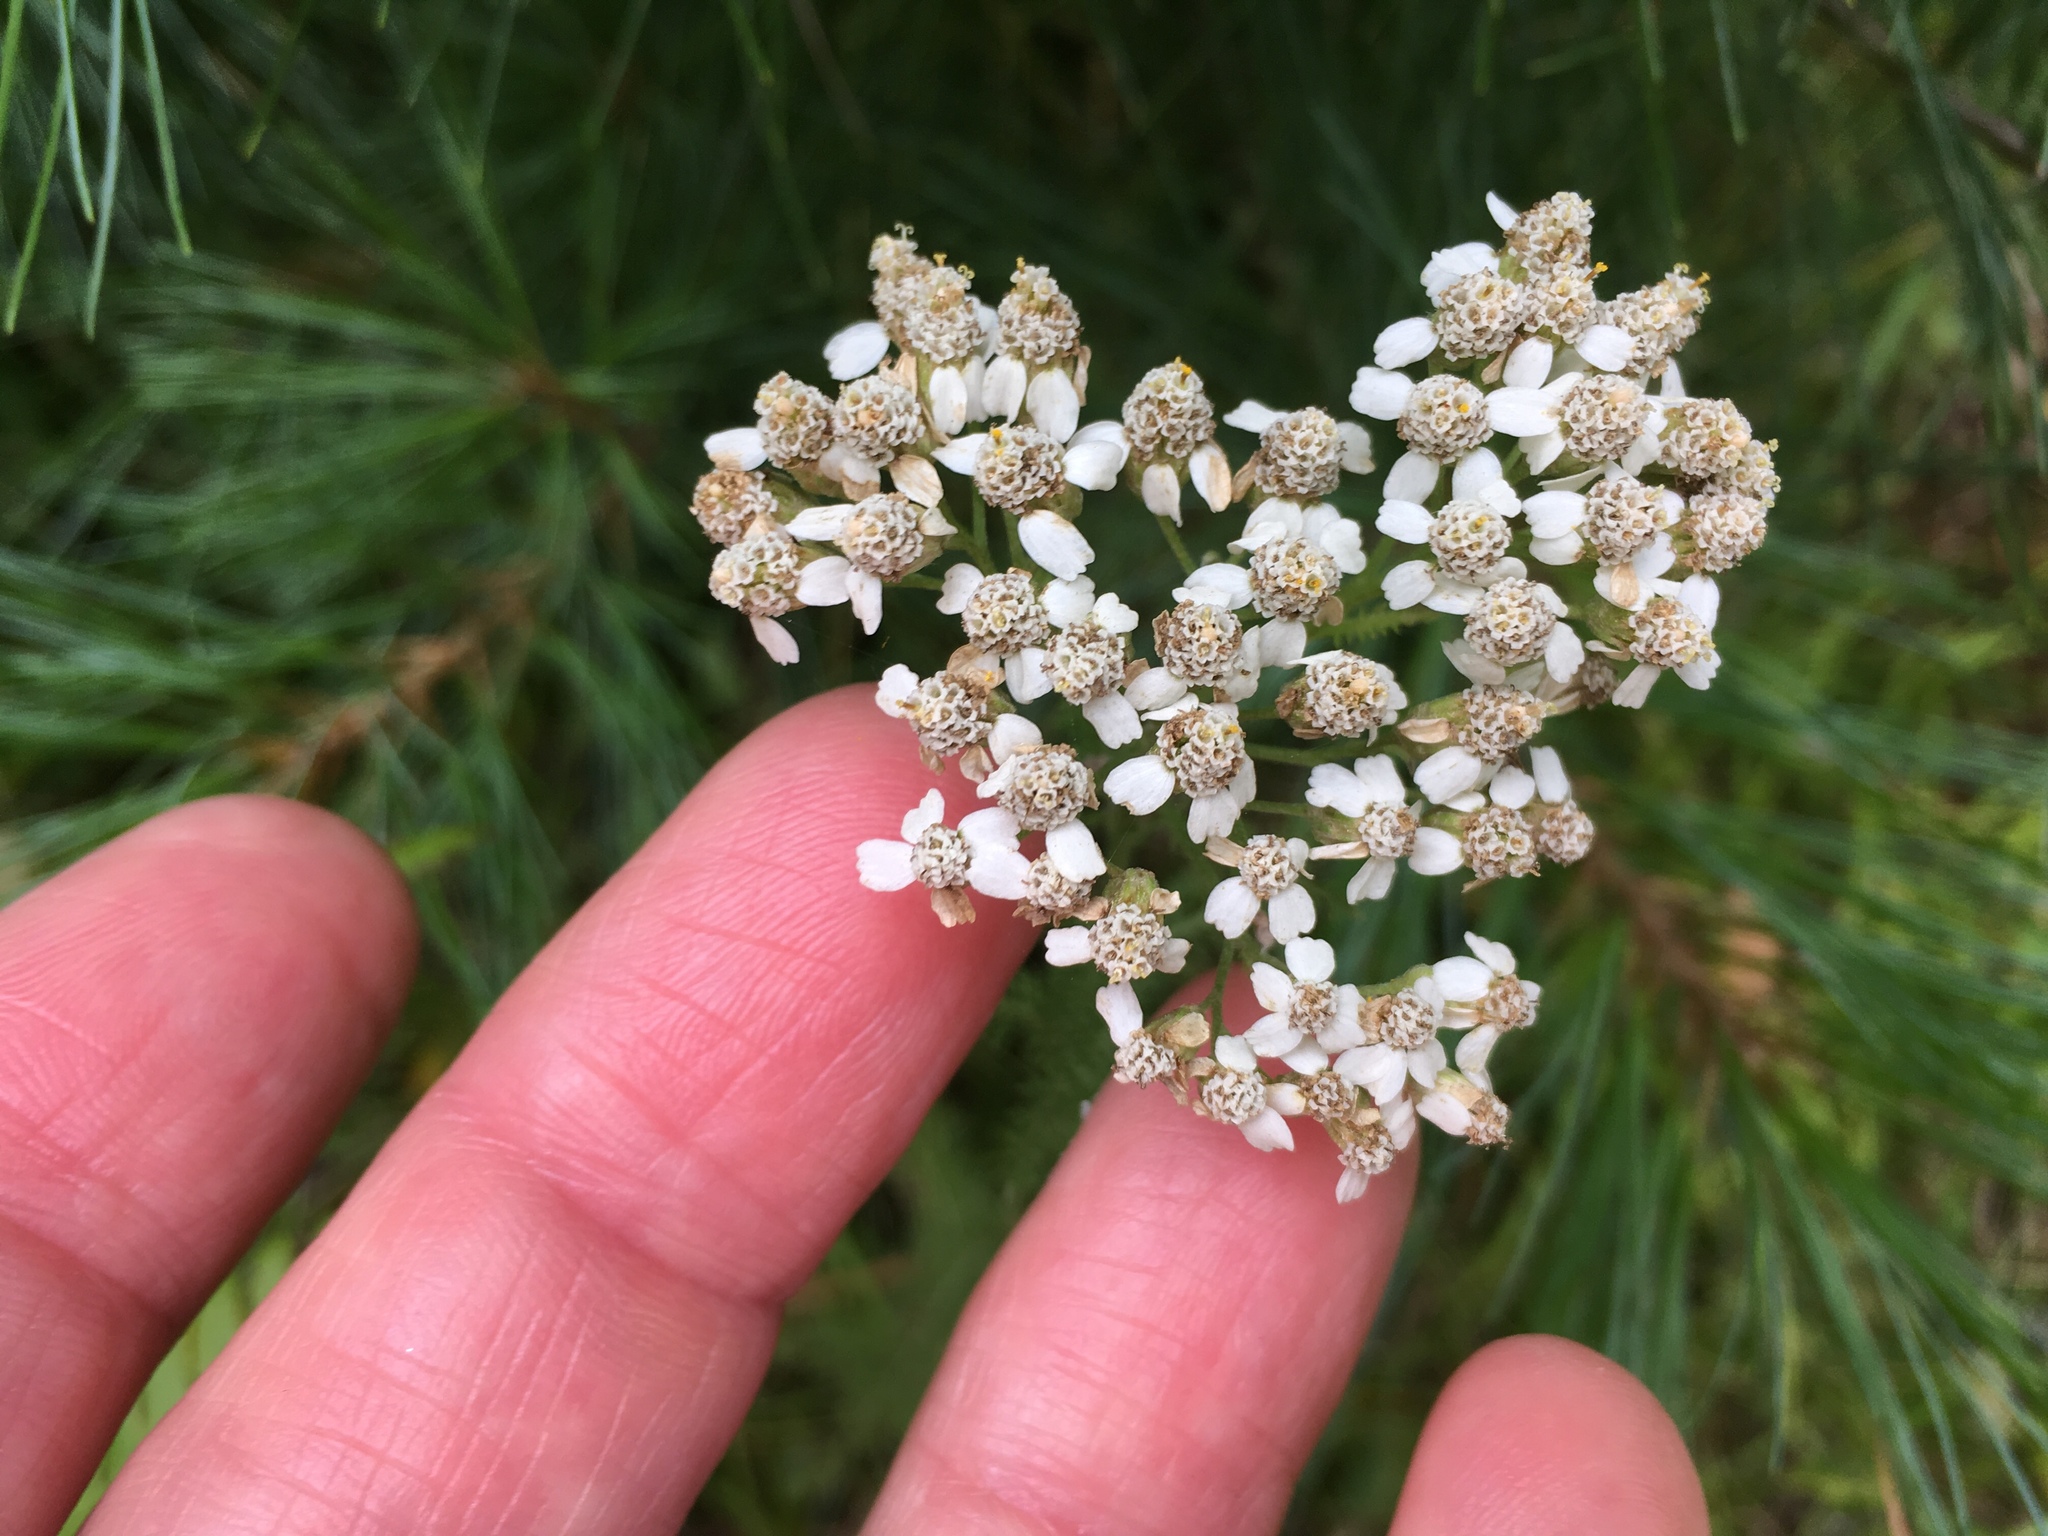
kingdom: Plantae
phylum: Tracheophyta
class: Magnoliopsida
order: Asterales
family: Asteraceae
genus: Achillea
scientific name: Achillea millefolium
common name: Yarrow
